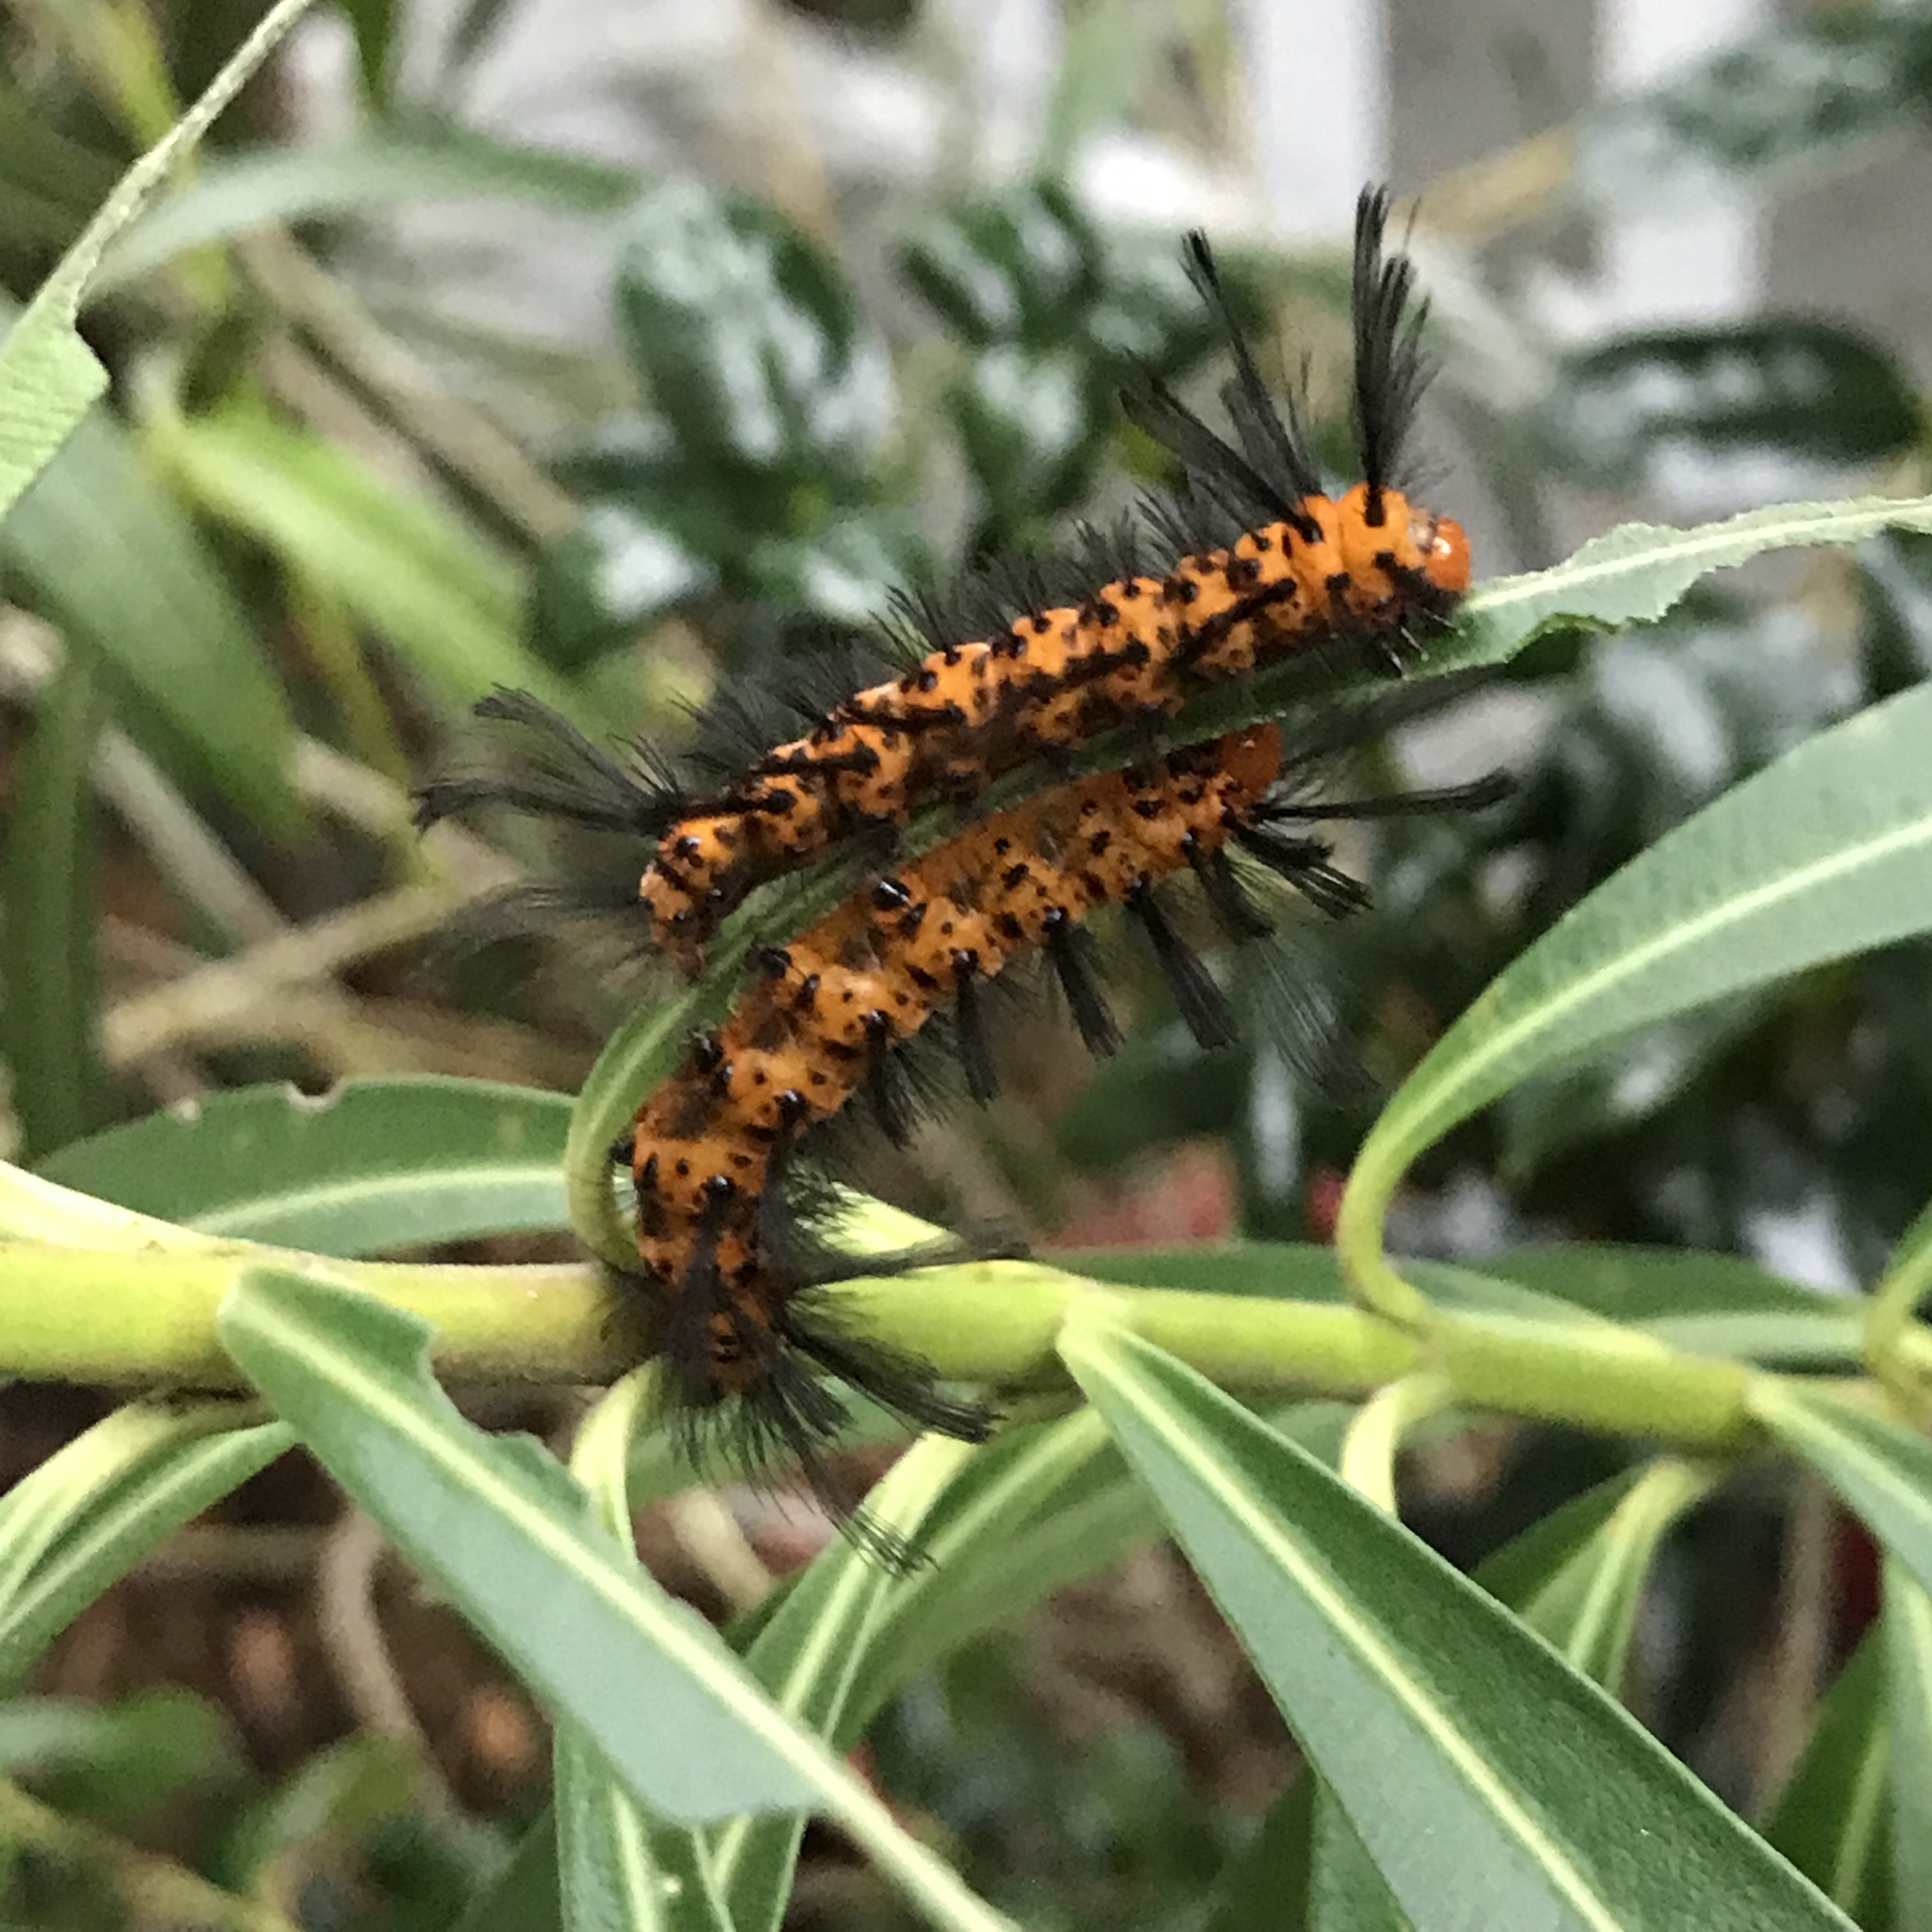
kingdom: Animalia
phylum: Arthropoda
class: Insecta
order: Lepidoptera
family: Erebidae
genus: Syntomeida
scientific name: Syntomeida epilais
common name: Polka-dot wasp moth
